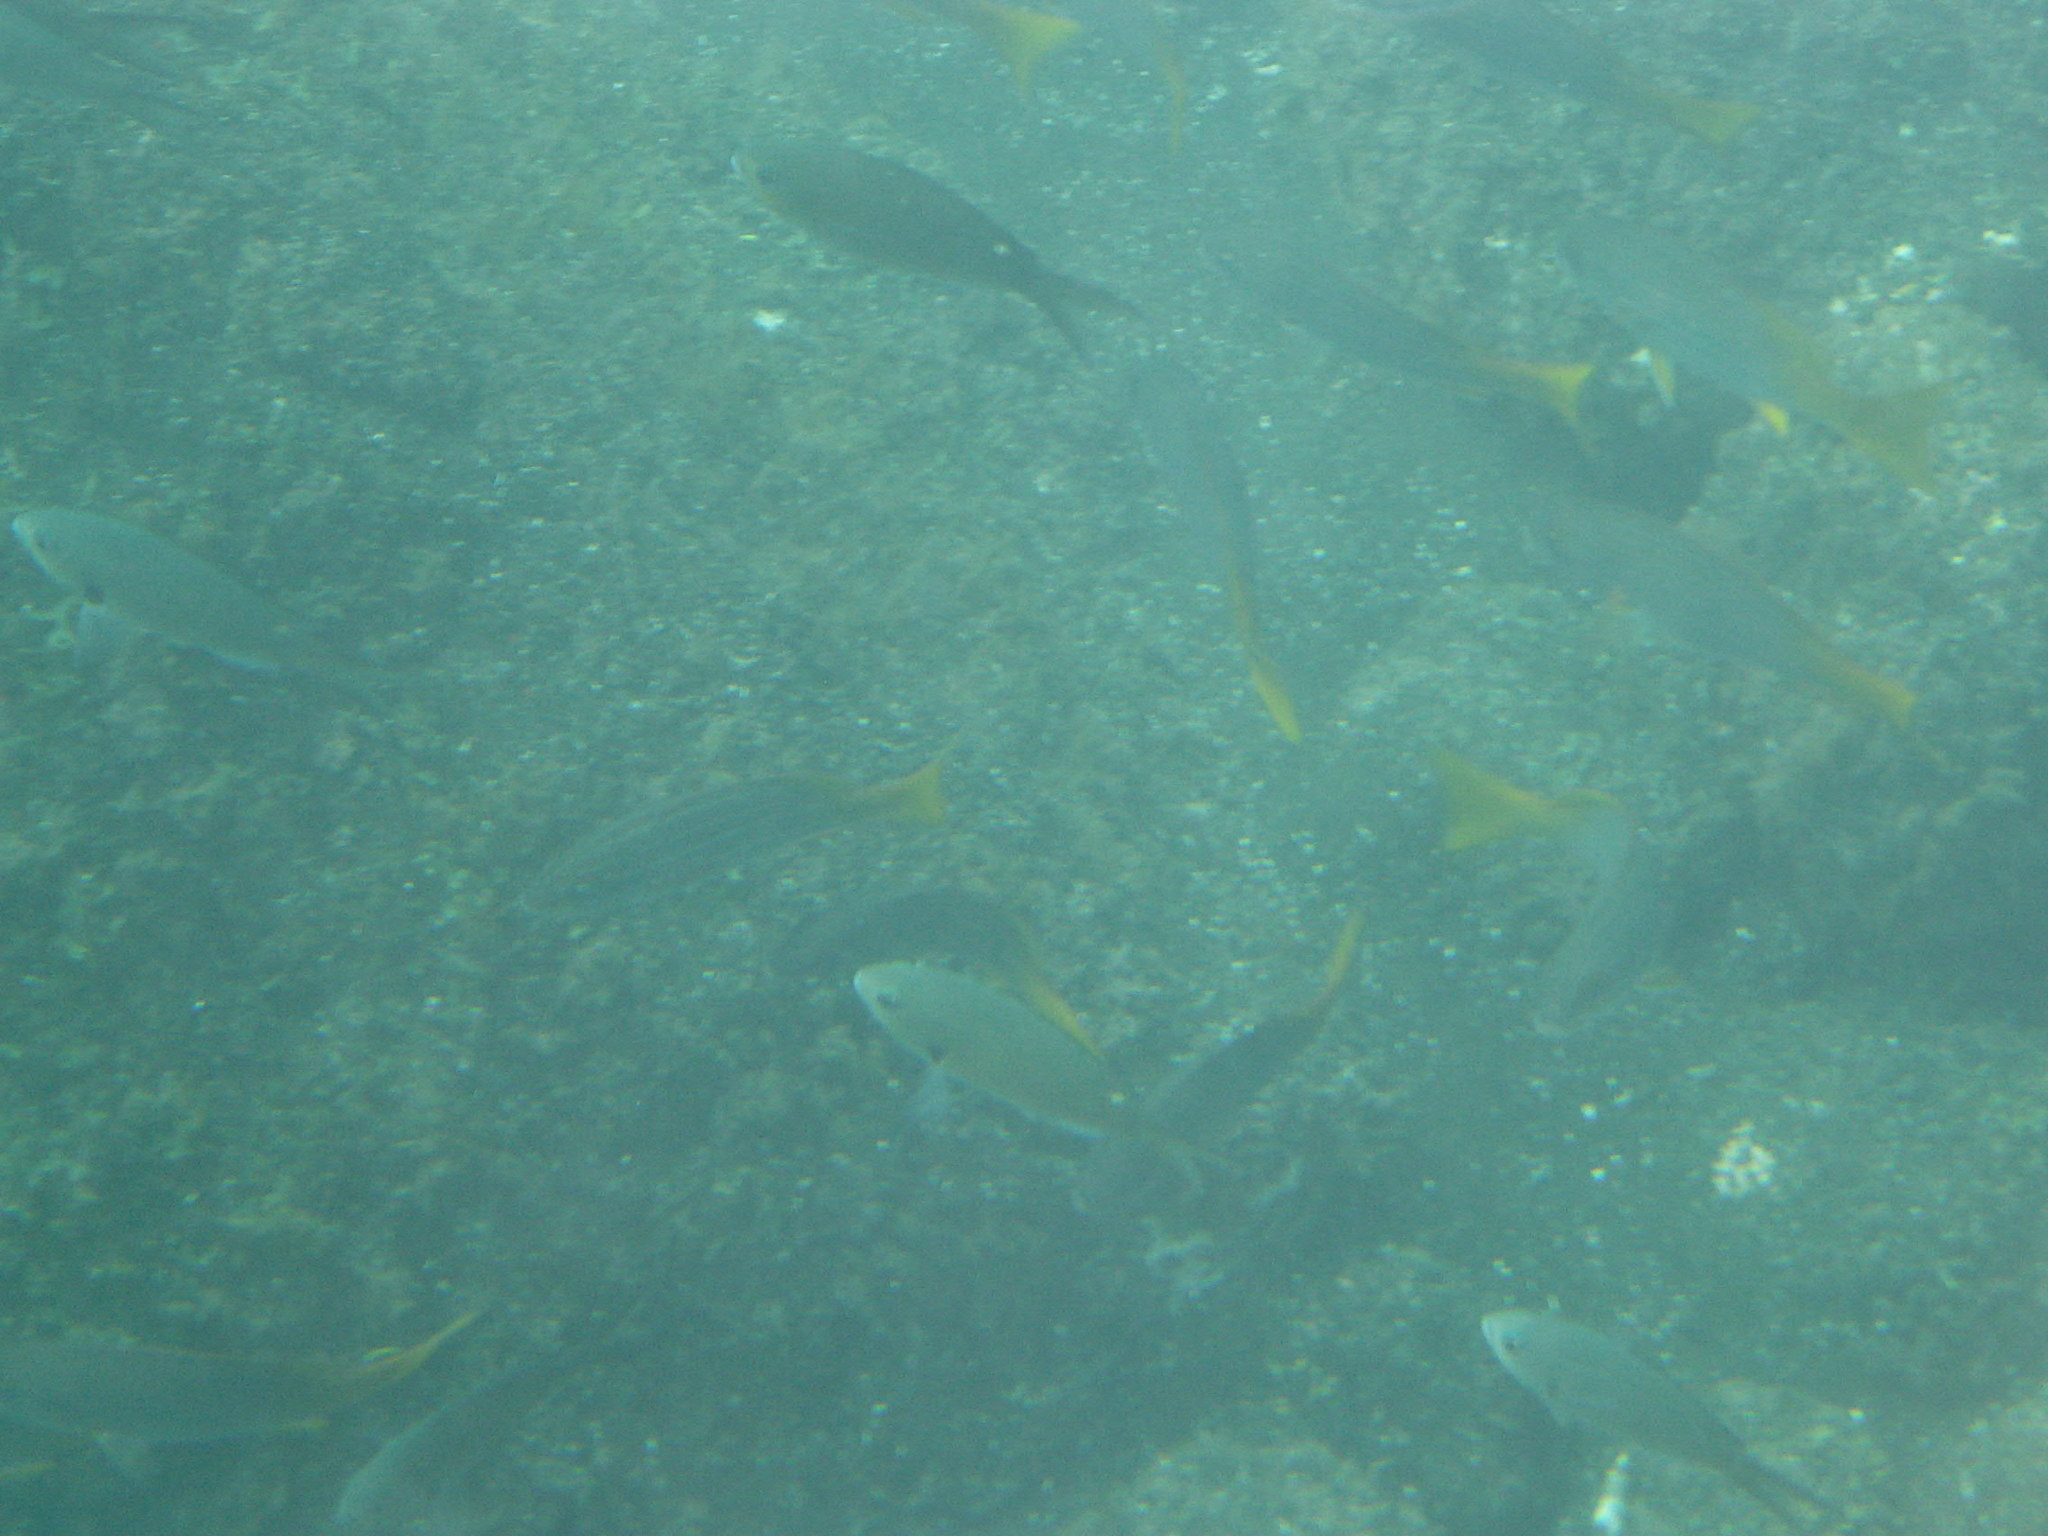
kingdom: Animalia
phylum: Chordata
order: Perciformes
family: Pomacentridae
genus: Chromis
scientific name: Chromis multilineata
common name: Brown chromis
